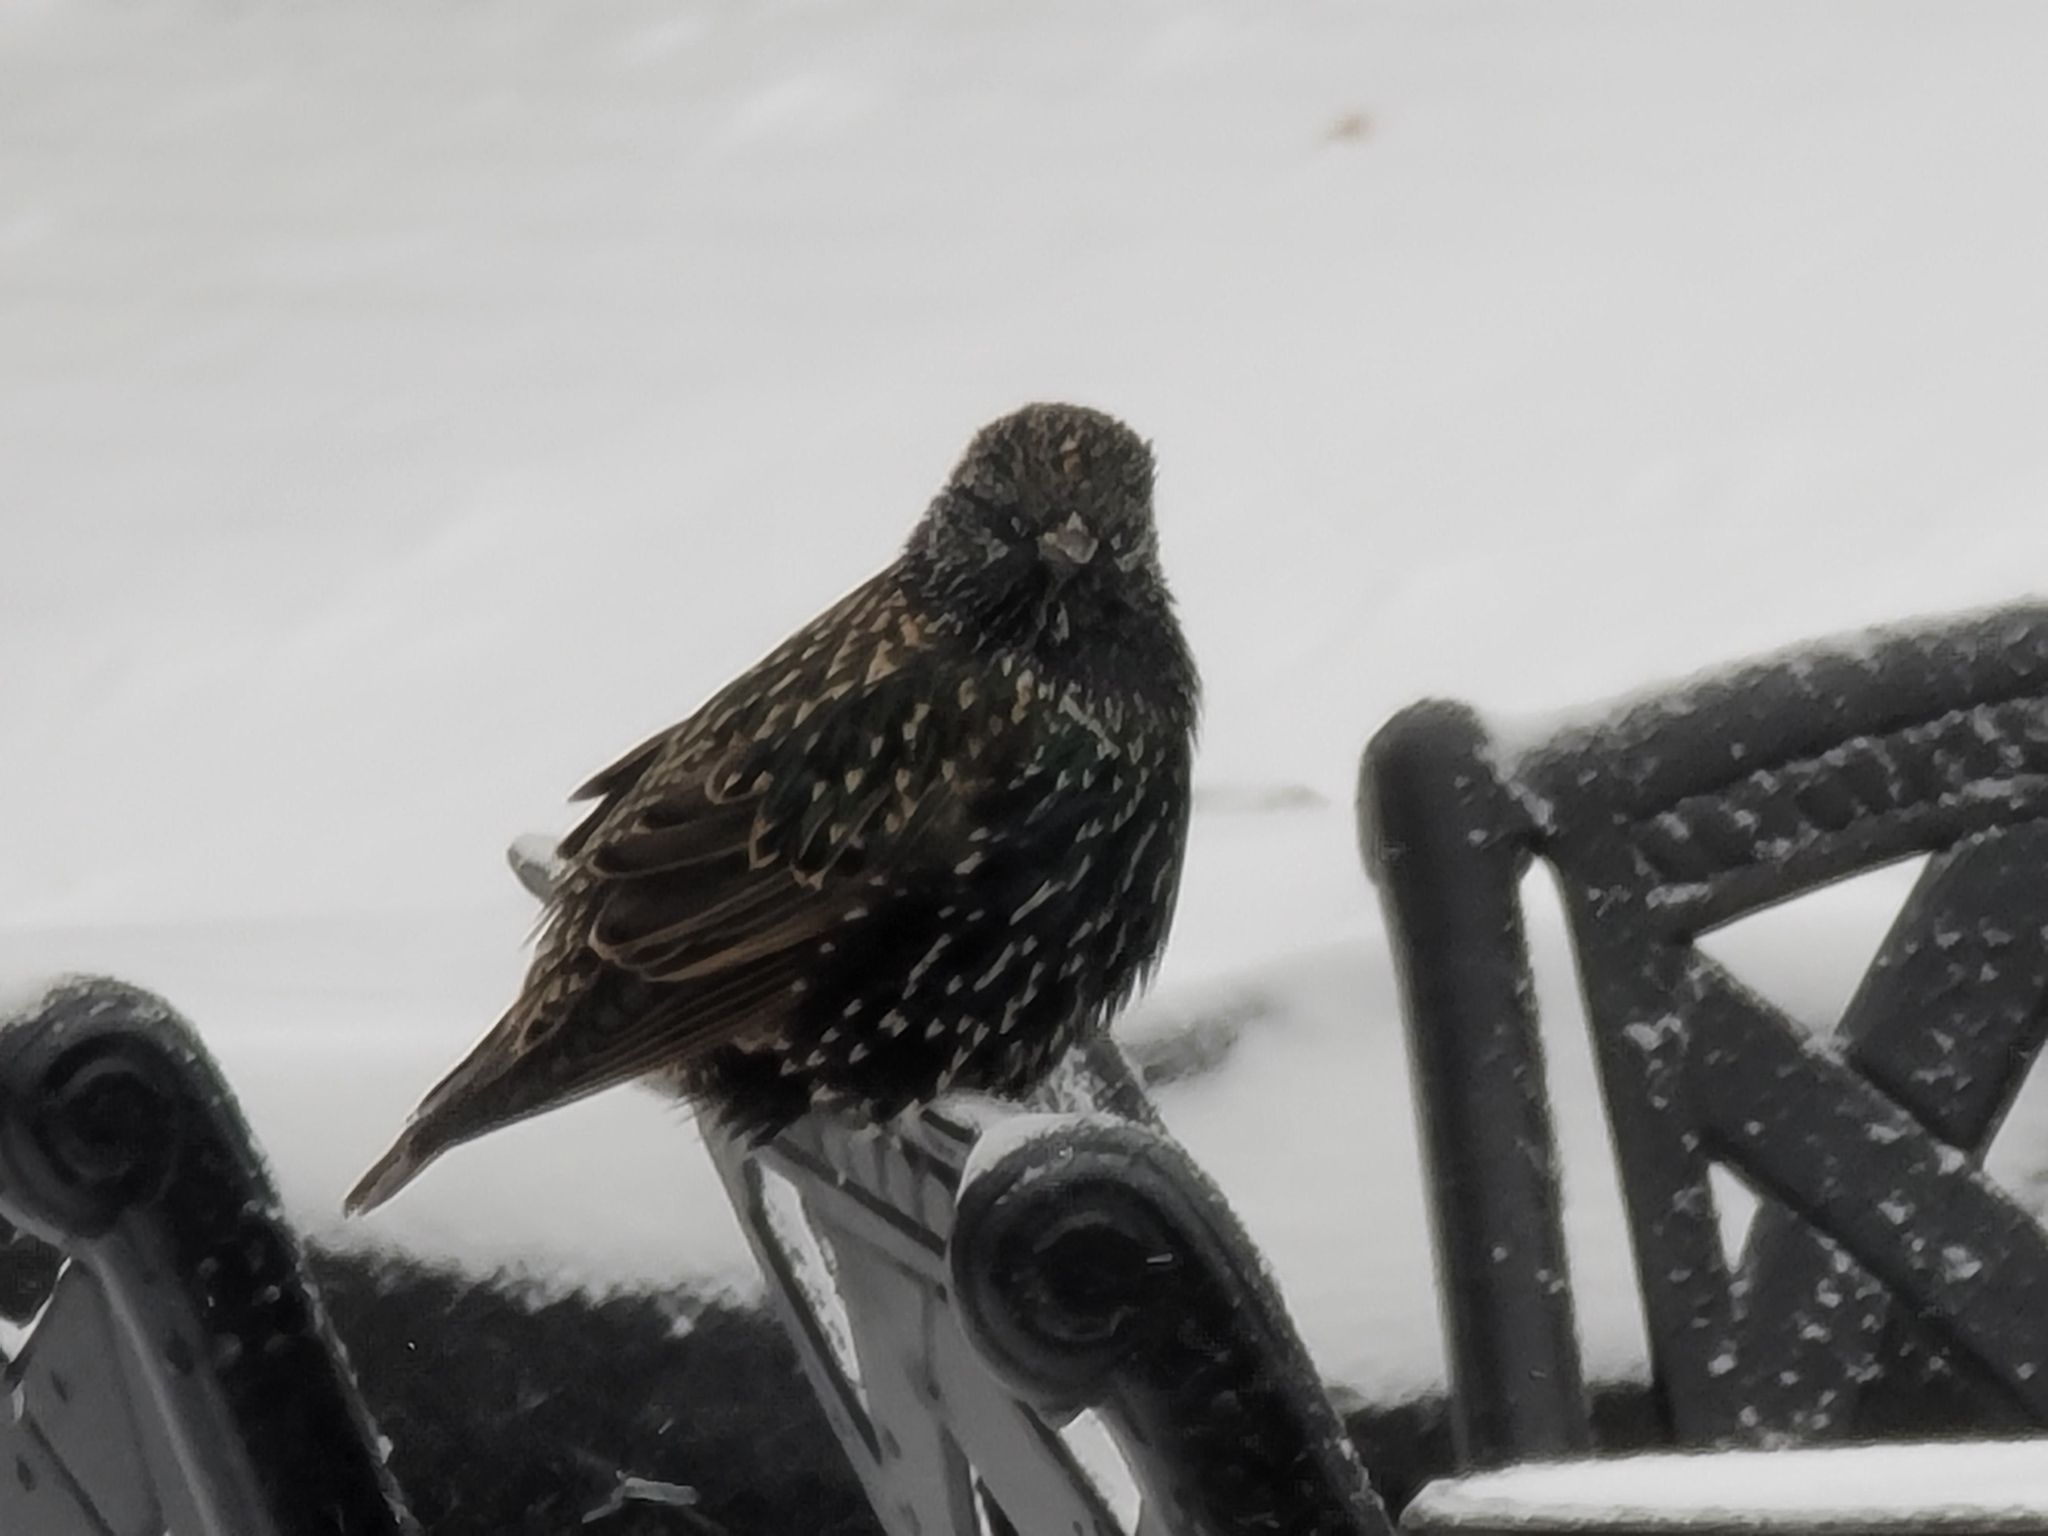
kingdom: Animalia
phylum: Chordata
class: Aves
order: Passeriformes
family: Sturnidae
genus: Sturnus
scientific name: Sturnus vulgaris
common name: Common starling
